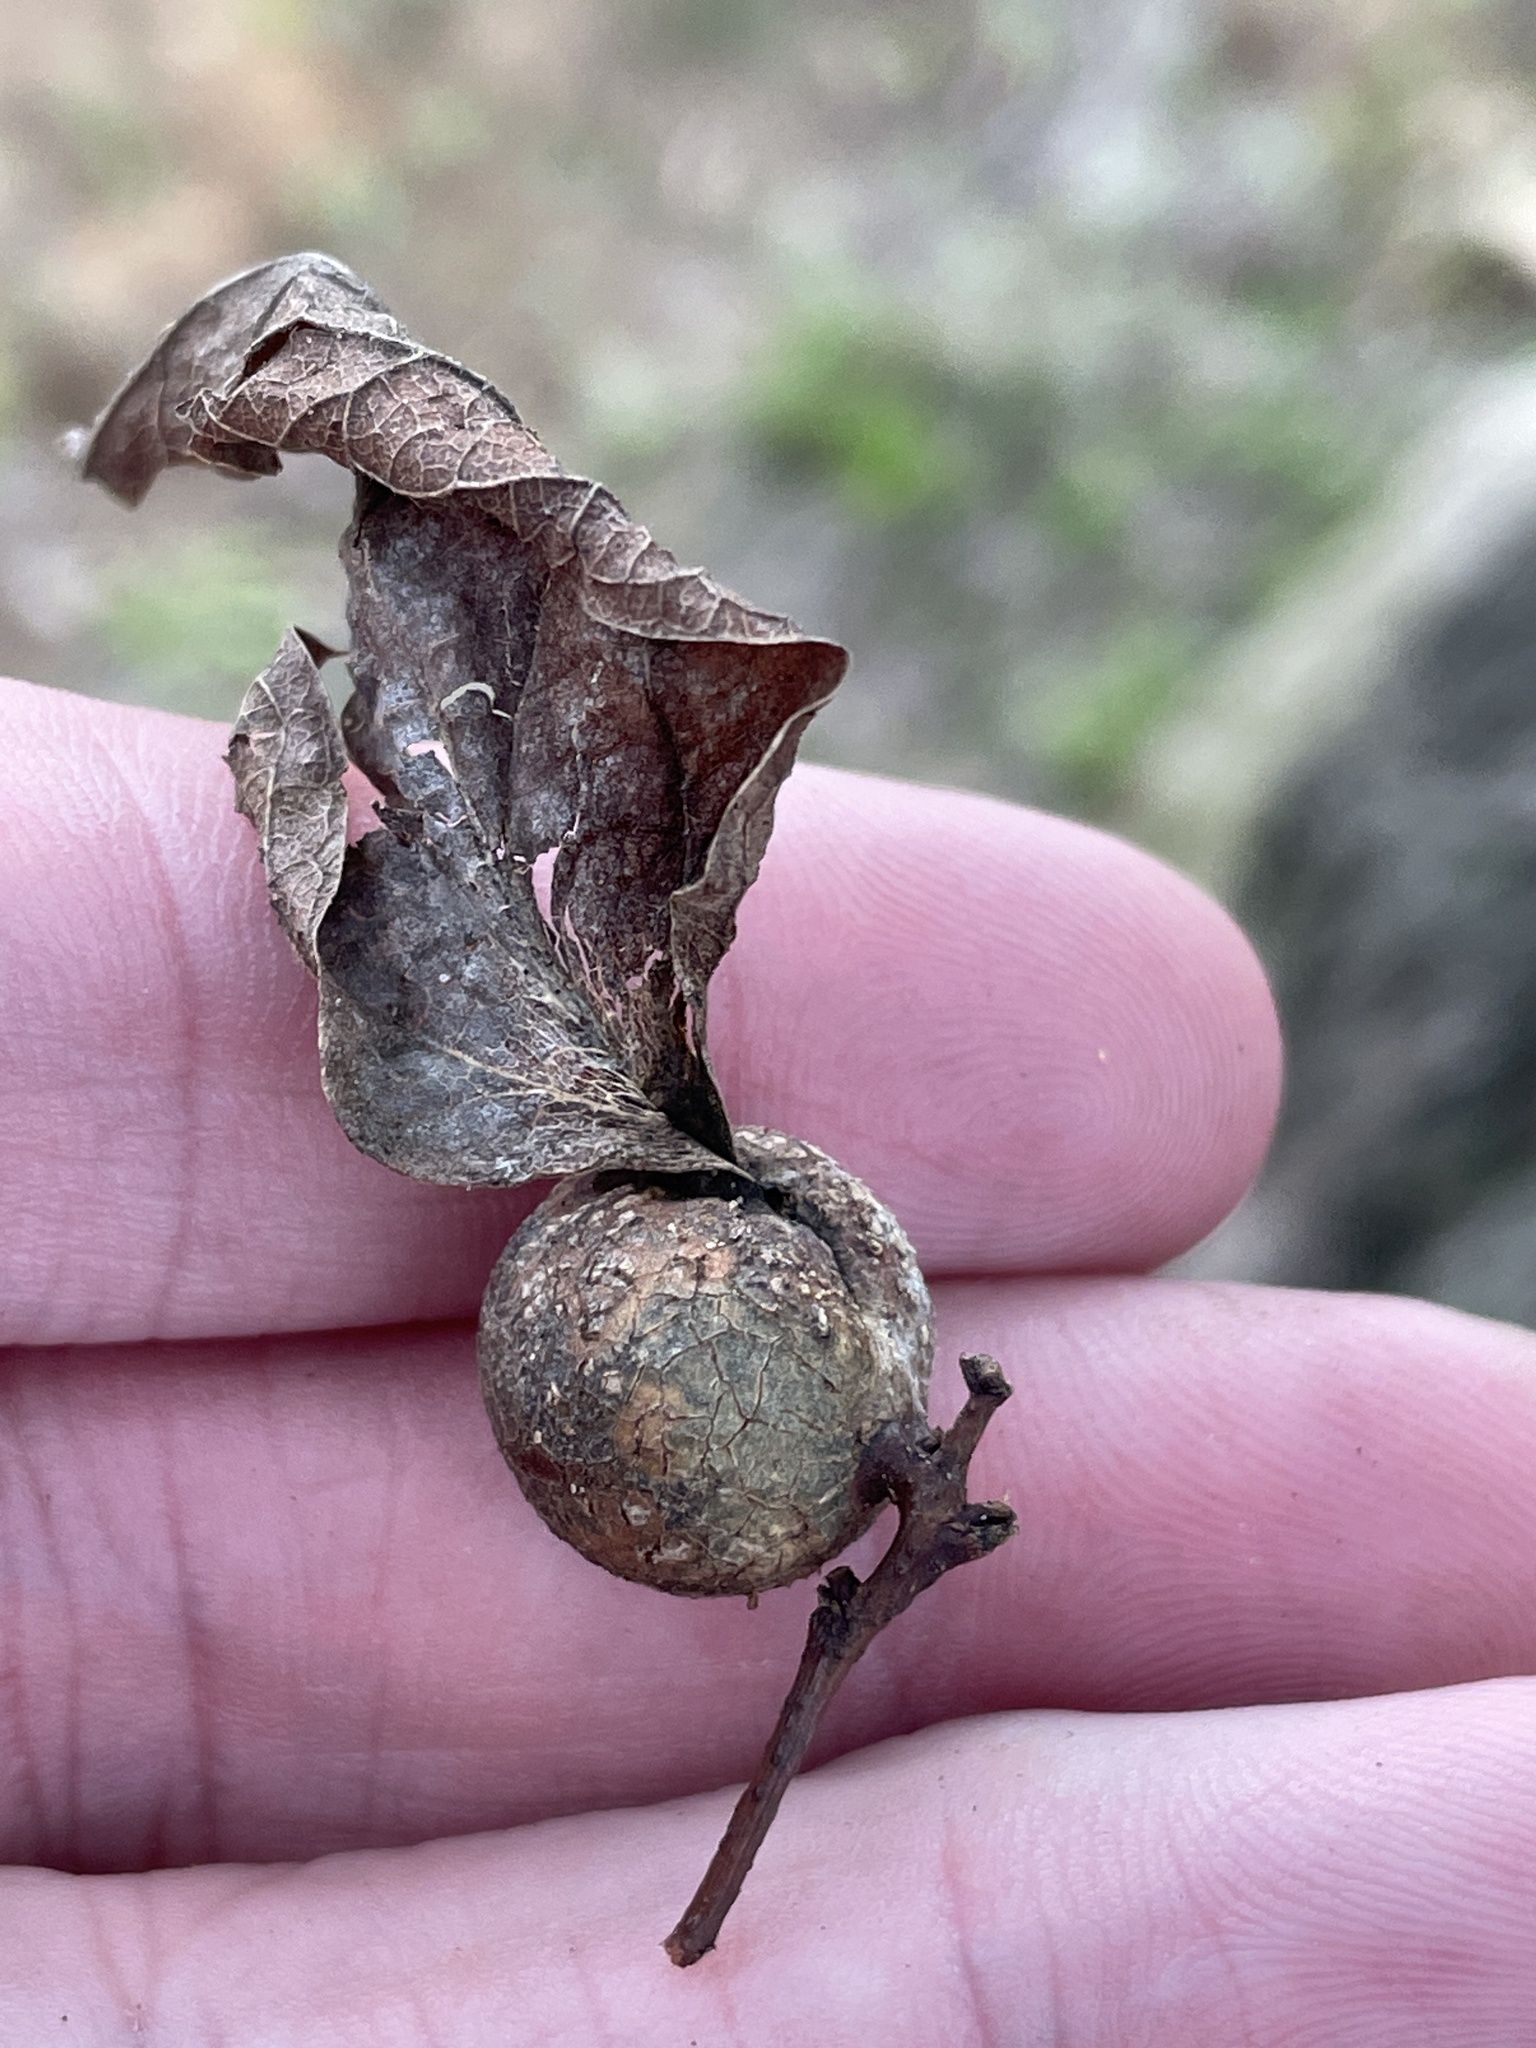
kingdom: Animalia
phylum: Arthropoda
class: Insecta
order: Hemiptera
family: Aphalaridae
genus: Pachypsylla
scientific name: Pachypsylla venusta
